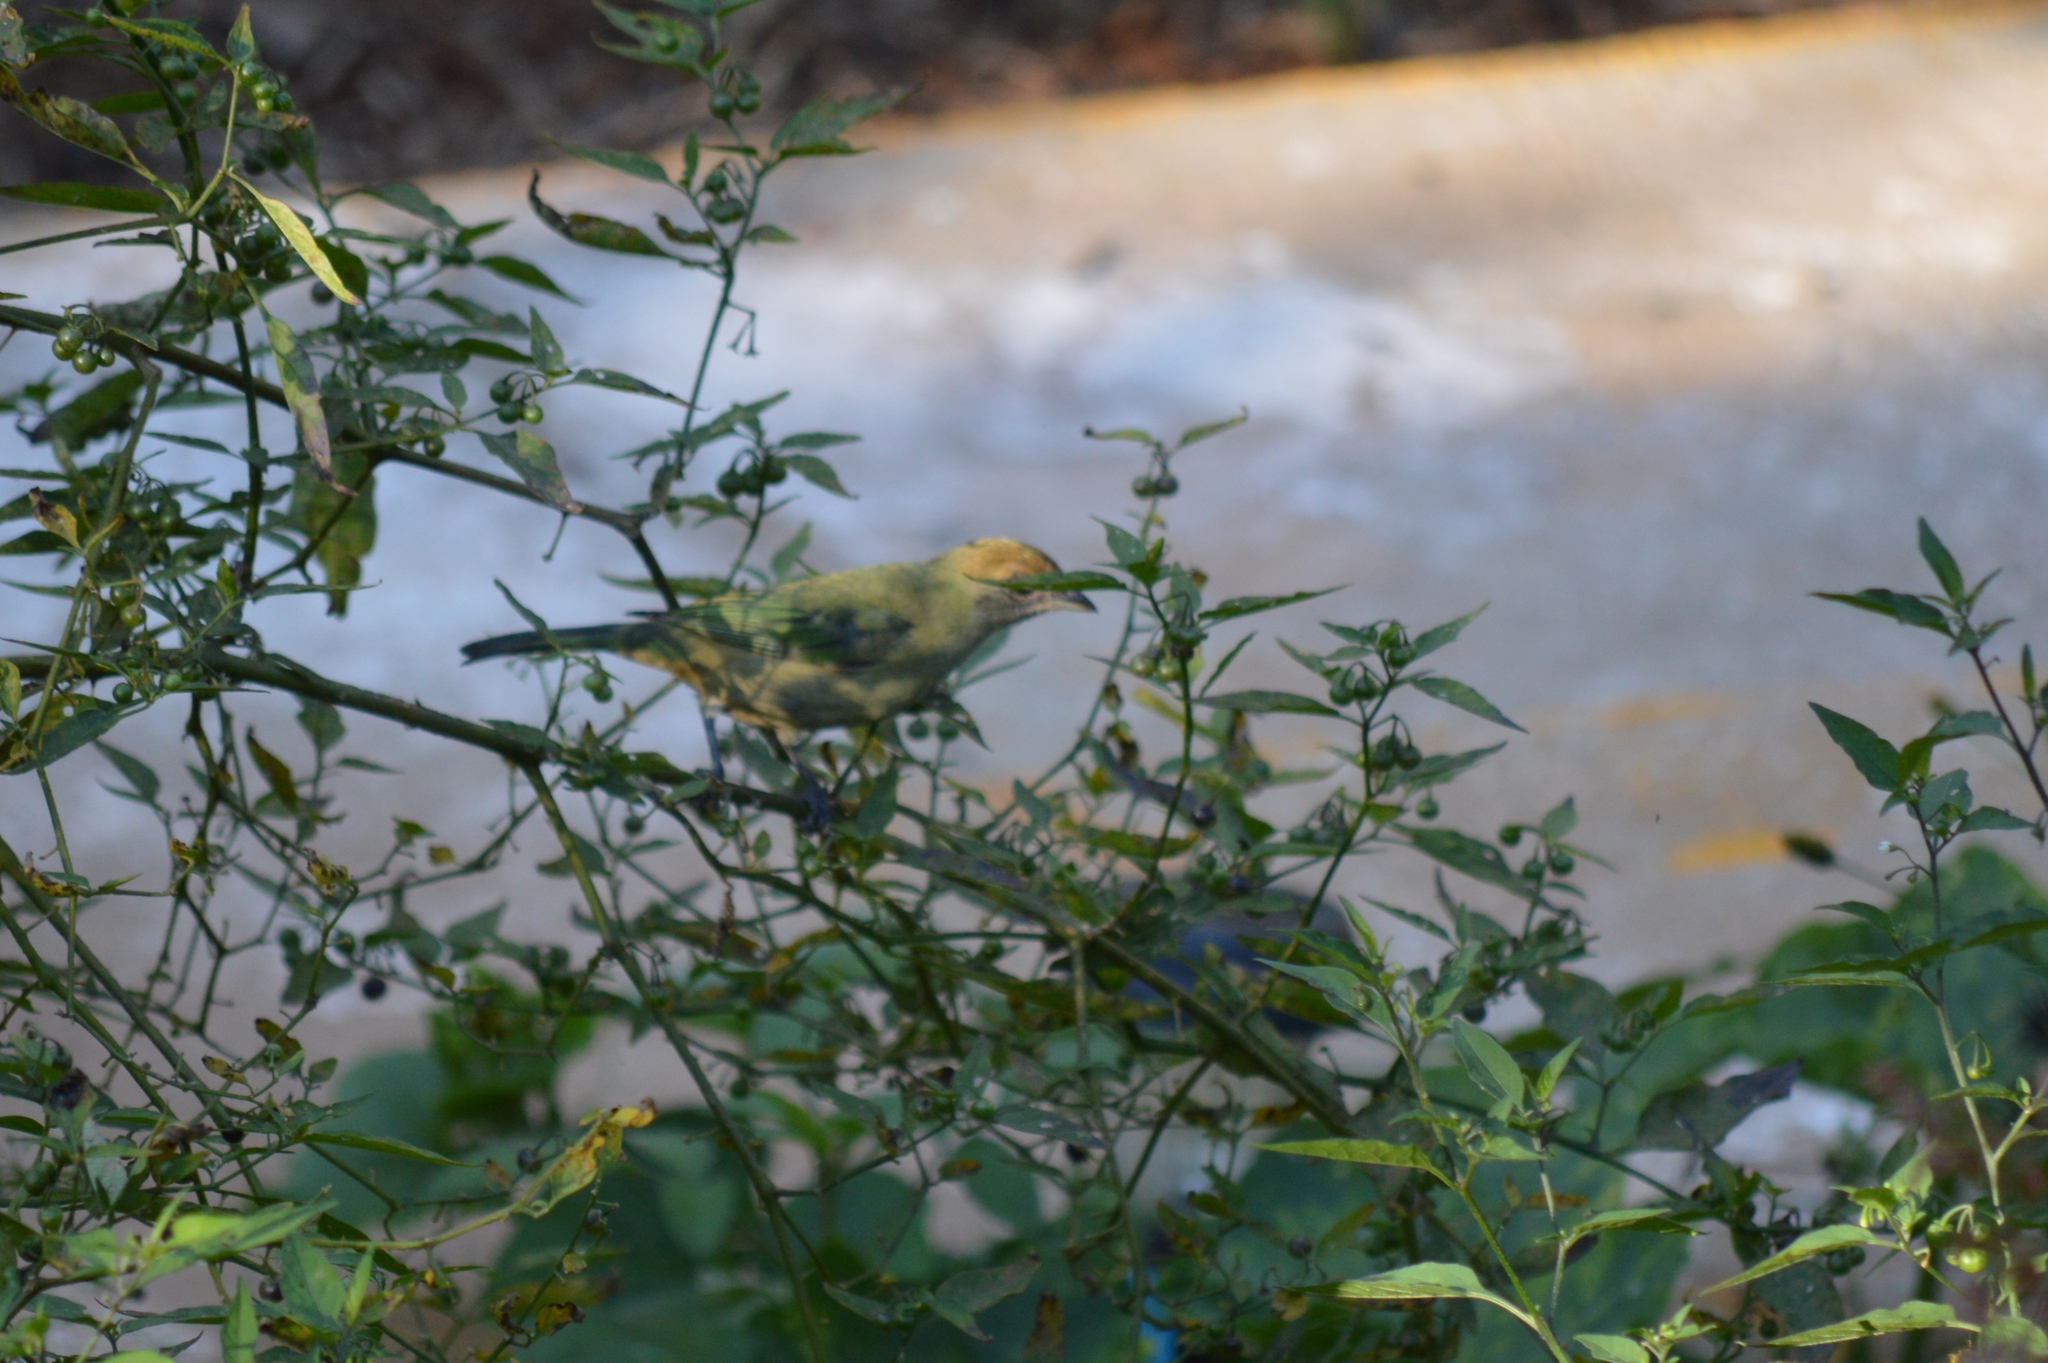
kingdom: Animalia
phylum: Chordata
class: Aves
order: Passeriformes
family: Thraupidae
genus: Stilpnia
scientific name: Stilpnia cayana
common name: Burnished-buff tanager
